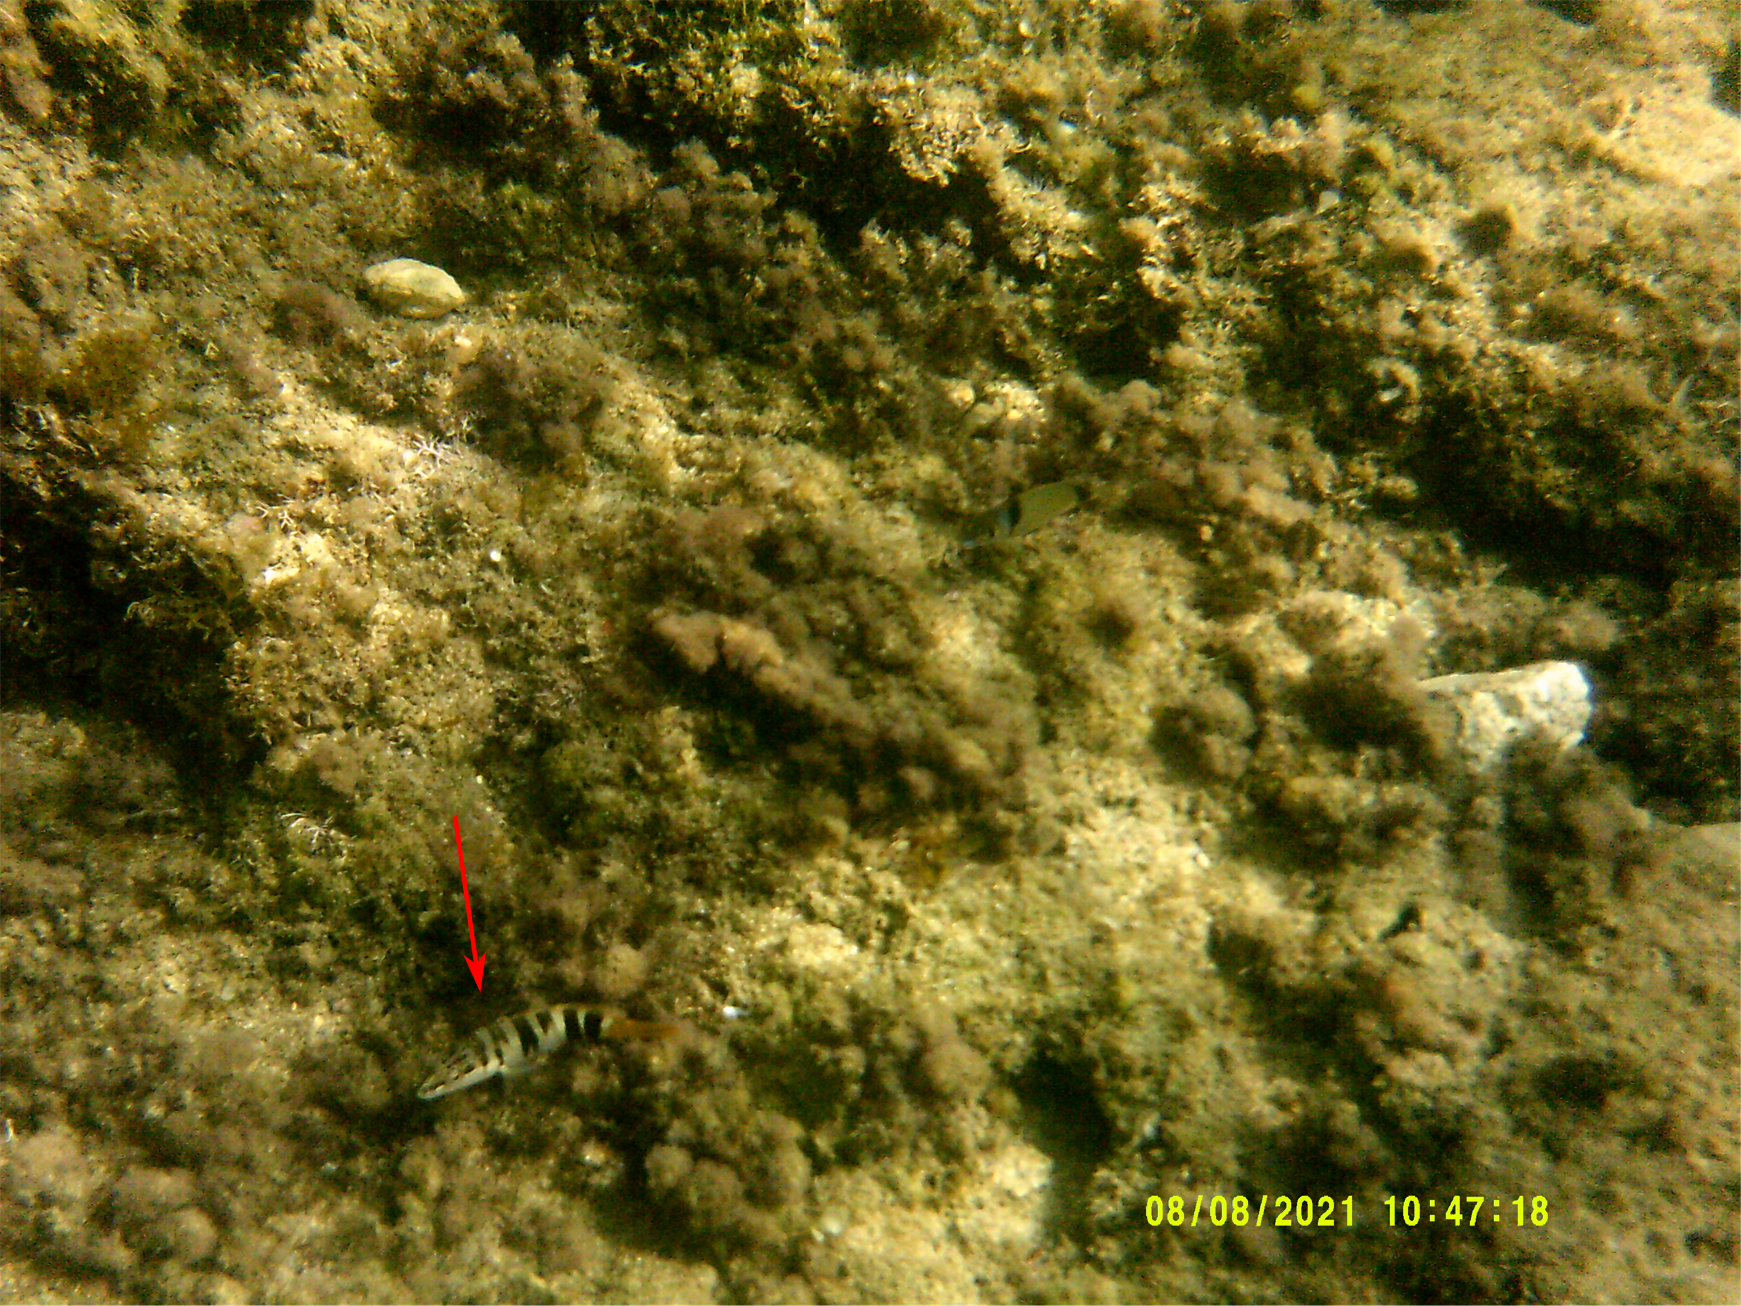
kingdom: Animalia
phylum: Chordata
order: Perciformes
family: Serranidae
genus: Serranus
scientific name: Serranus scriba
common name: Painted comber
